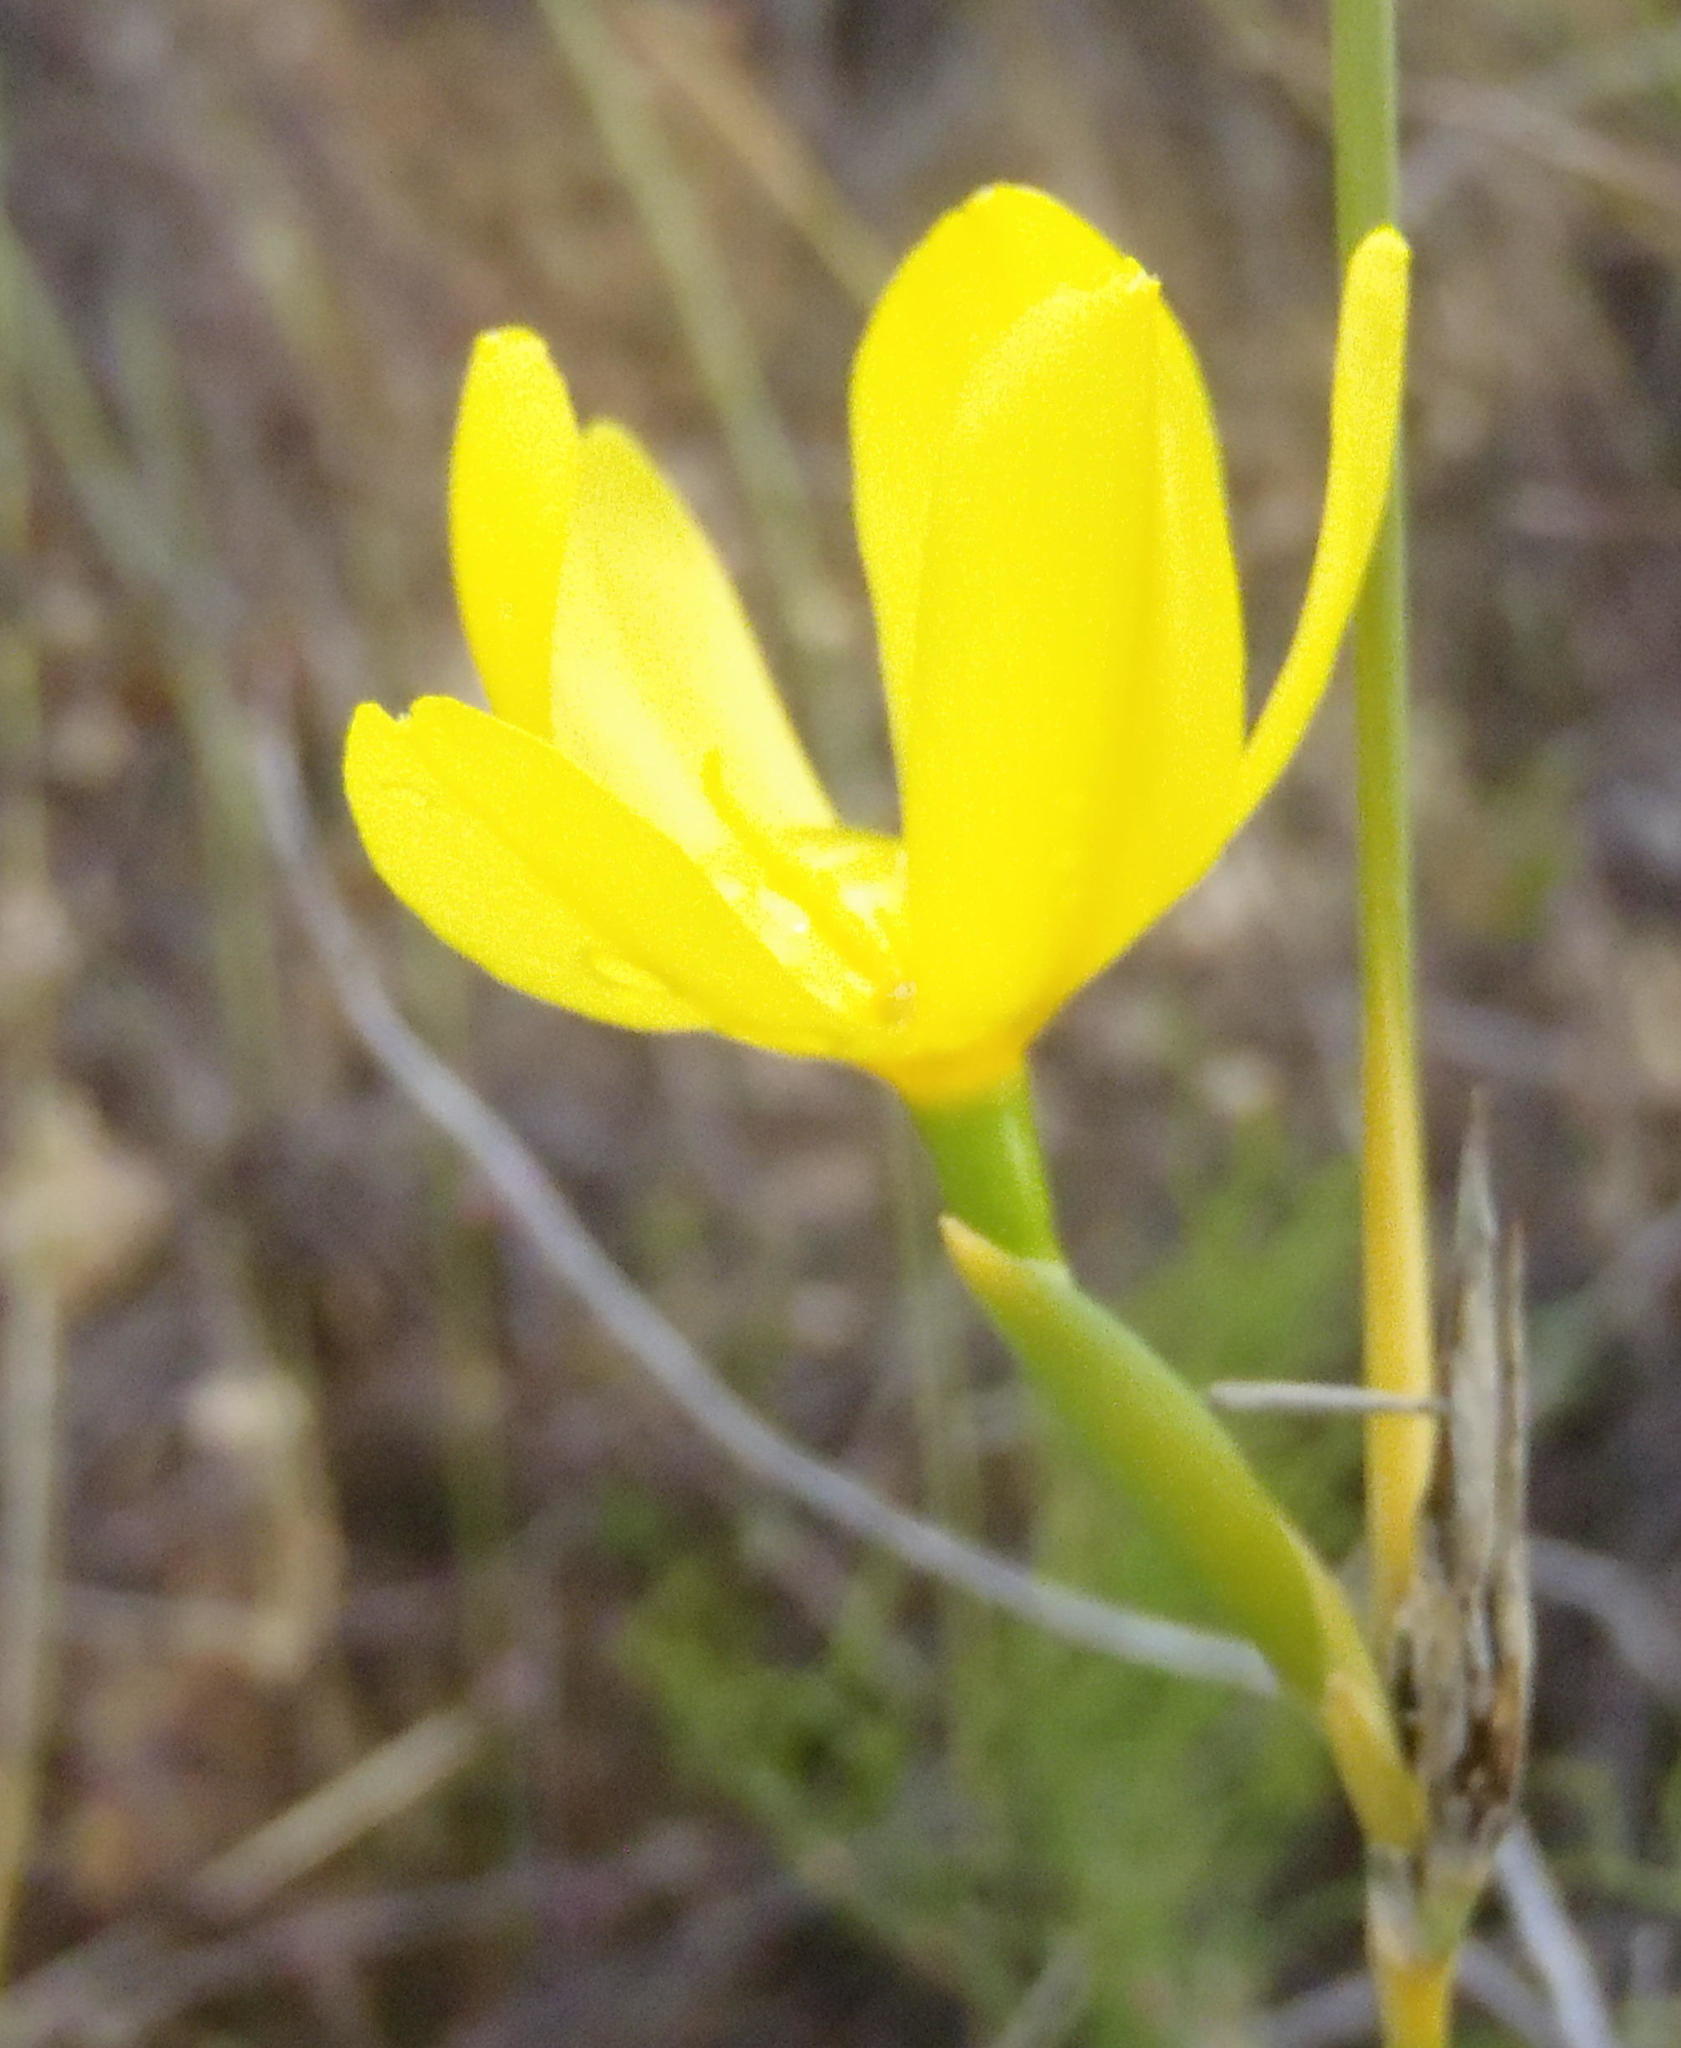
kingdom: Plantae
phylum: Tracheophyta
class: Liliopsida
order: Asparagales
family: Iridaceae
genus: Bobartia
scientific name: Bobartia aphylla
